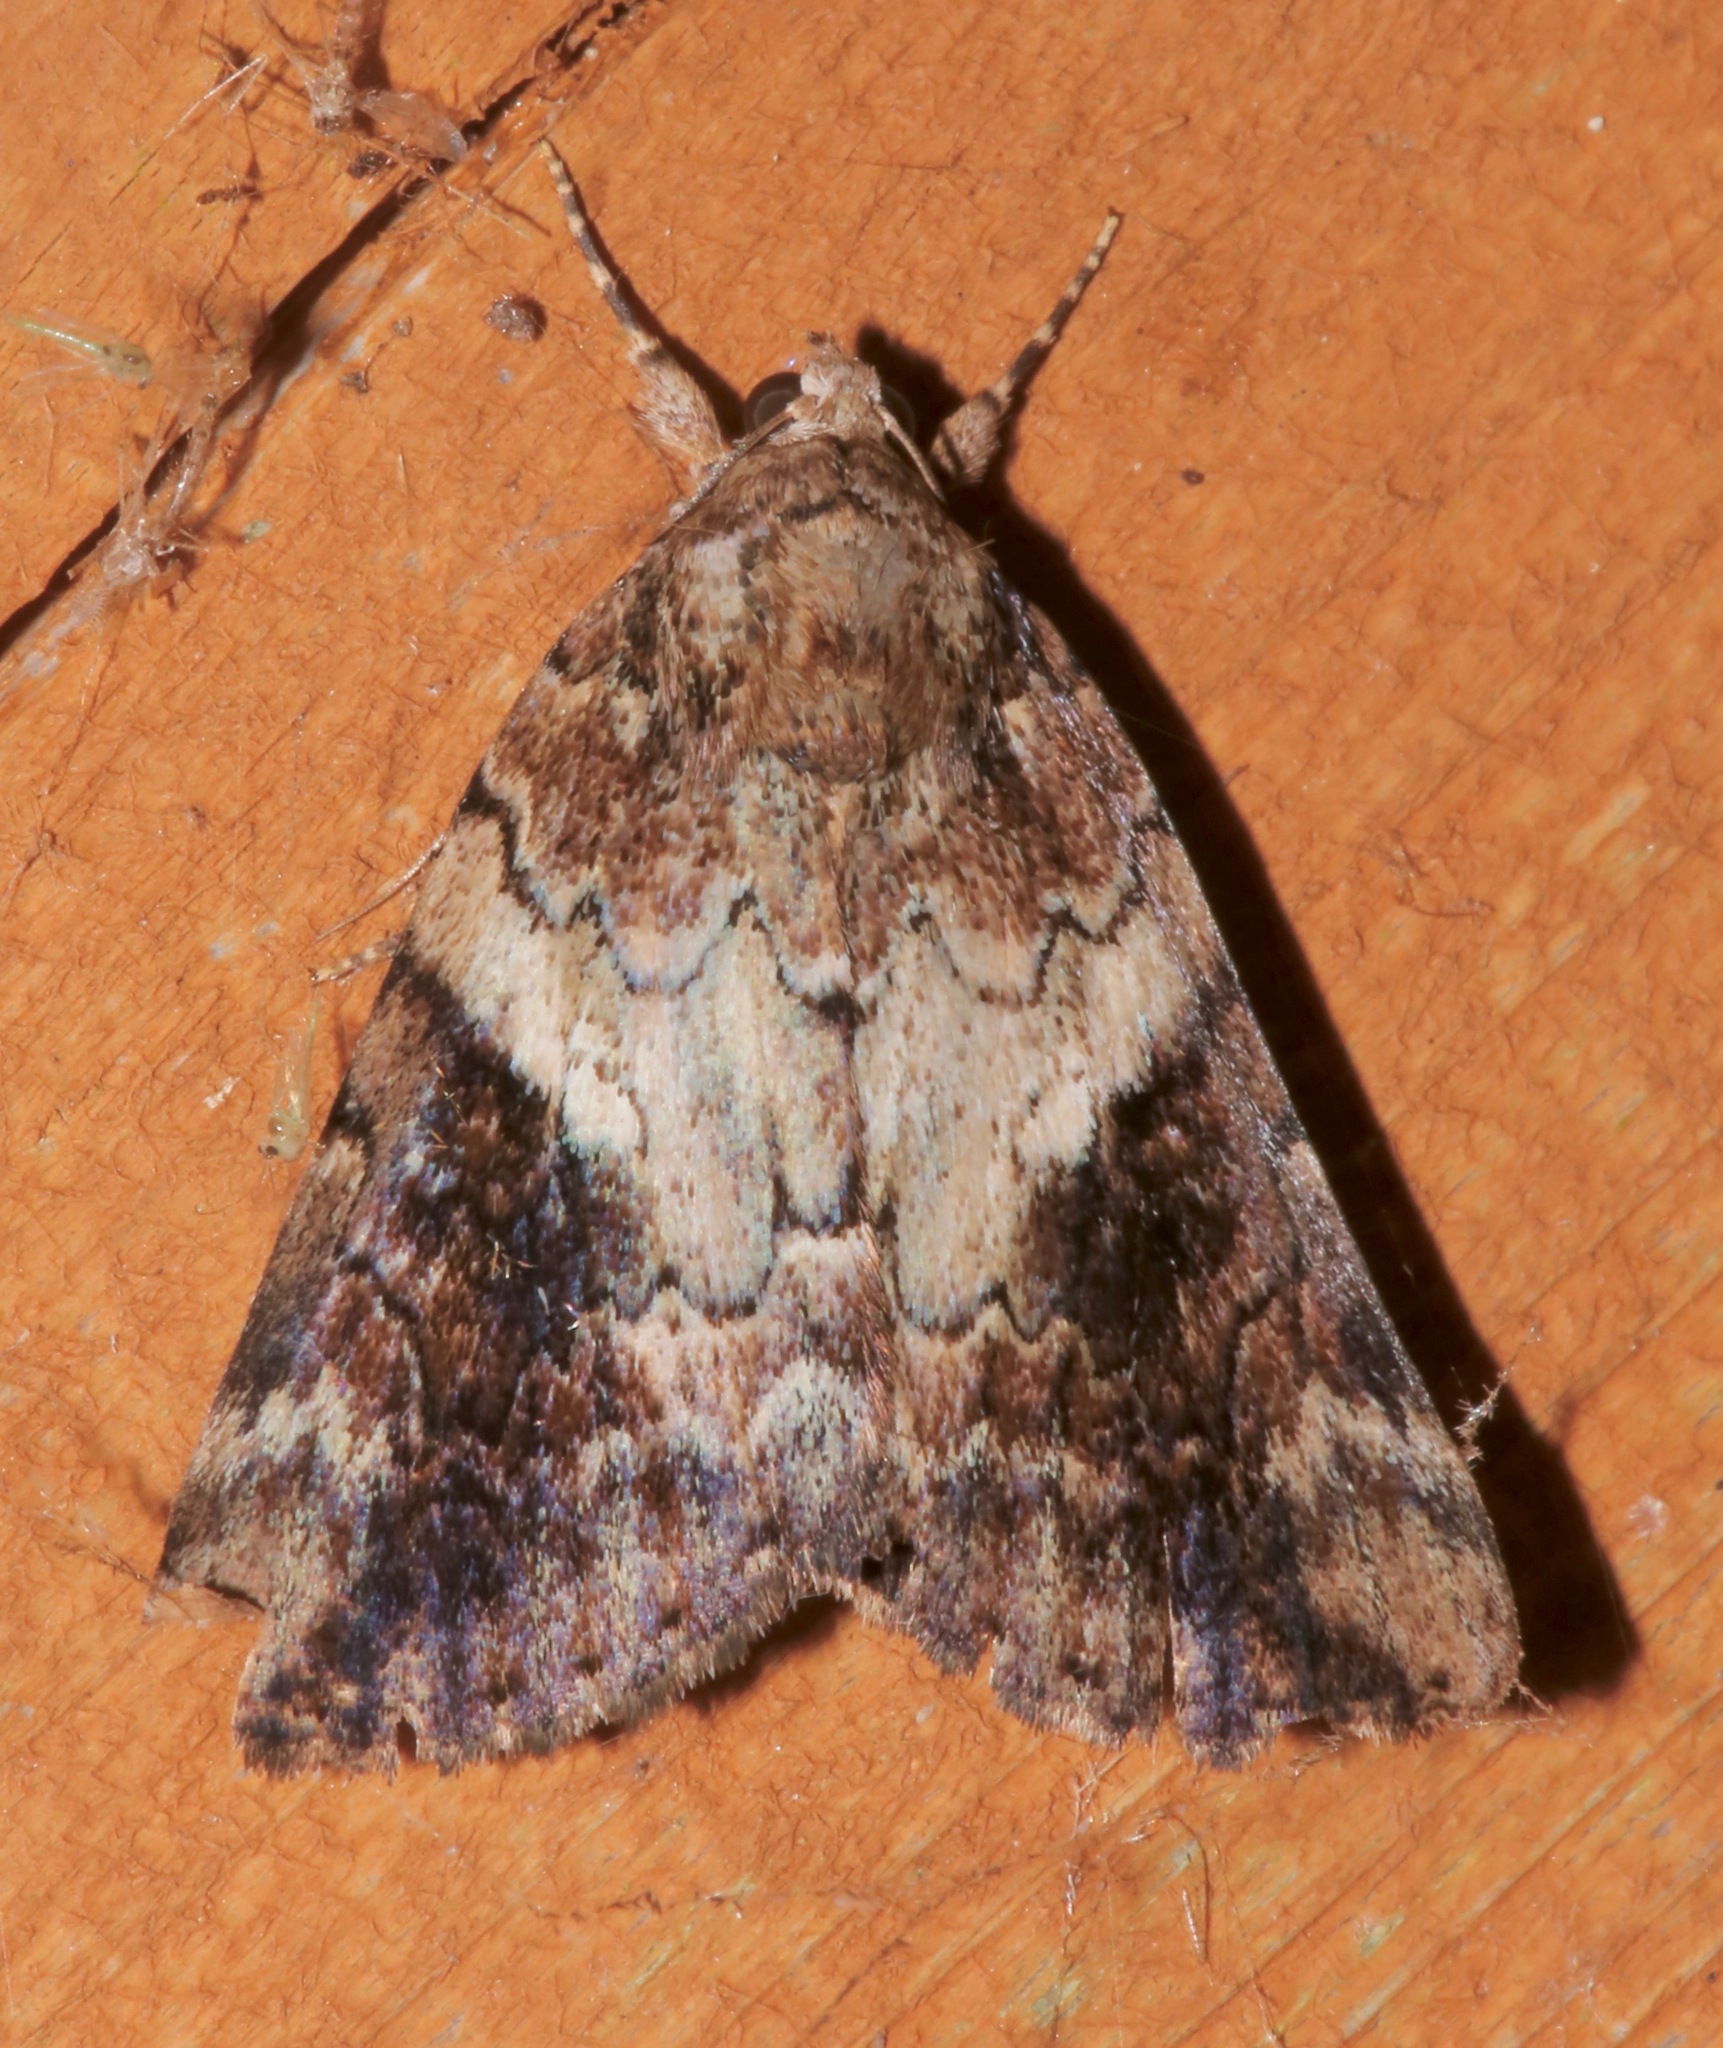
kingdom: Animalia
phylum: Arthropoda
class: Insecta
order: Lepidoptera
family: Erebidae
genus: Catocala
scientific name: Catocala micronympha
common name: Little nymph underwing
